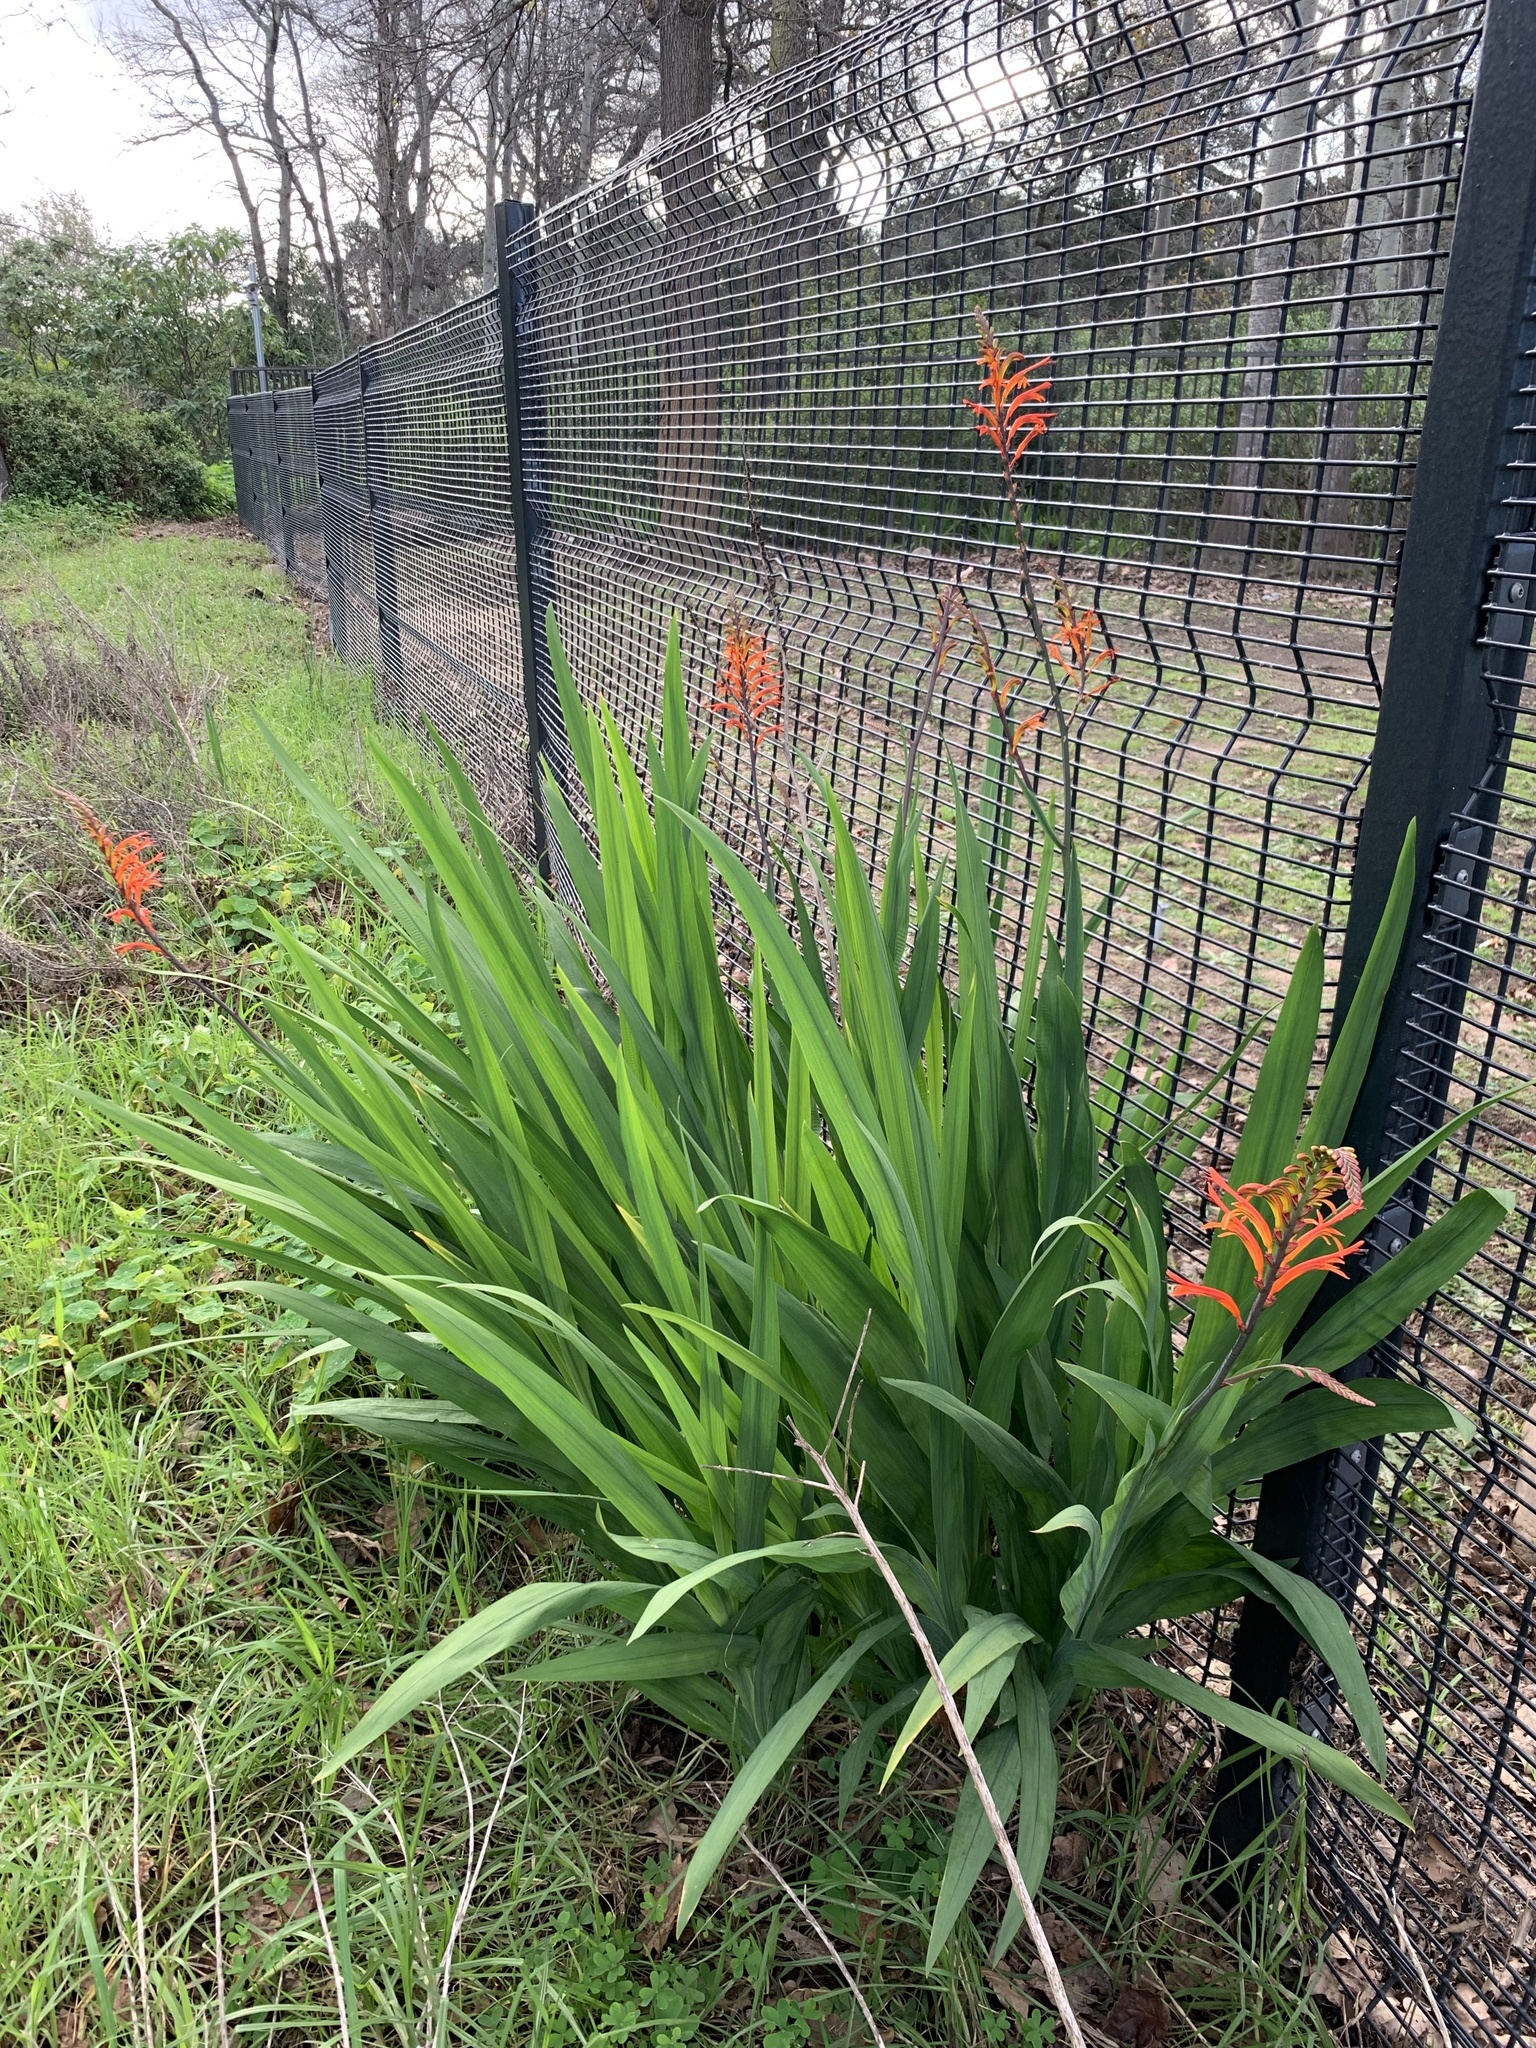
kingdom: Plantae
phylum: Tracheophyta
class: Liliopsida
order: Asparagales
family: Iridaceae
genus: Chasmanthe
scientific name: Chasmanthe floribunda
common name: African cornflag
